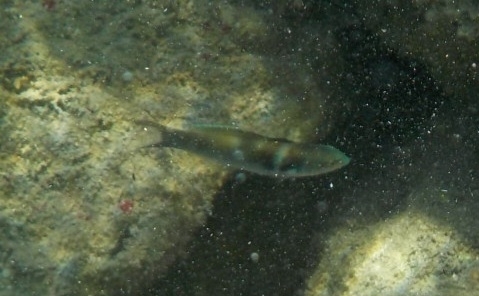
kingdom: Animalia
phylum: Chordata
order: Perciformes
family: Labridae
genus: Thalassoma
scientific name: Thalassoma bifasciatum
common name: Bluehead wrasse
